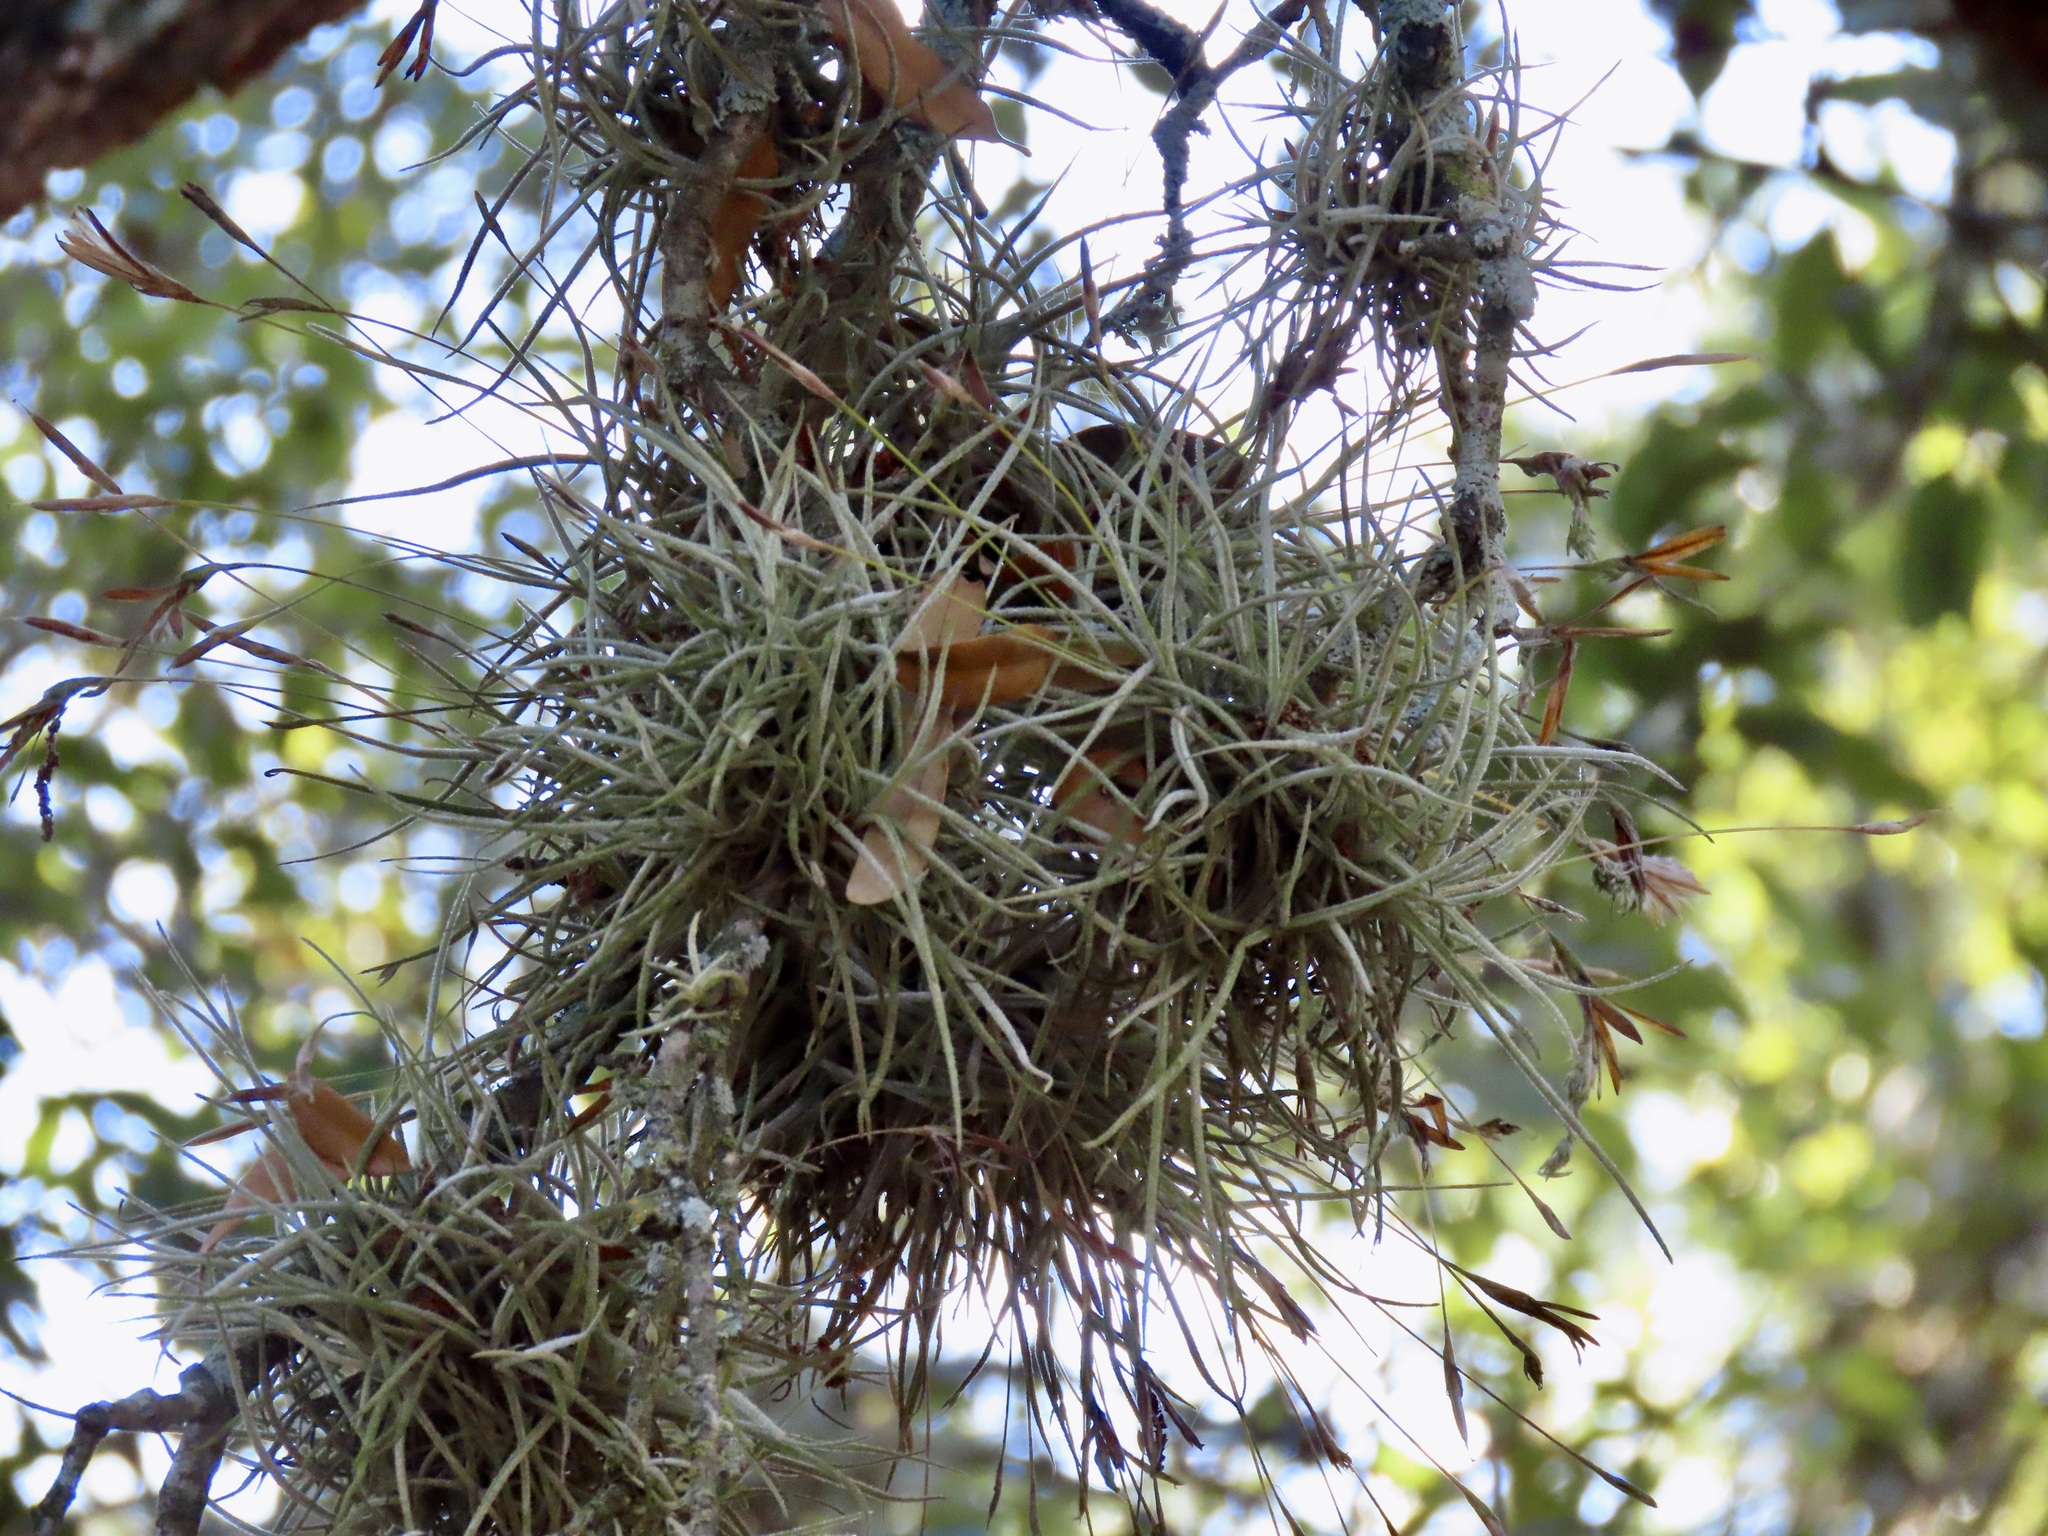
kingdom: Plantae
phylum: Tracheophyta
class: Liliopsida
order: Poales
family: Bromeliaceae
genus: Tillandsia
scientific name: Tillandsia recurvata
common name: Small ballmoss
